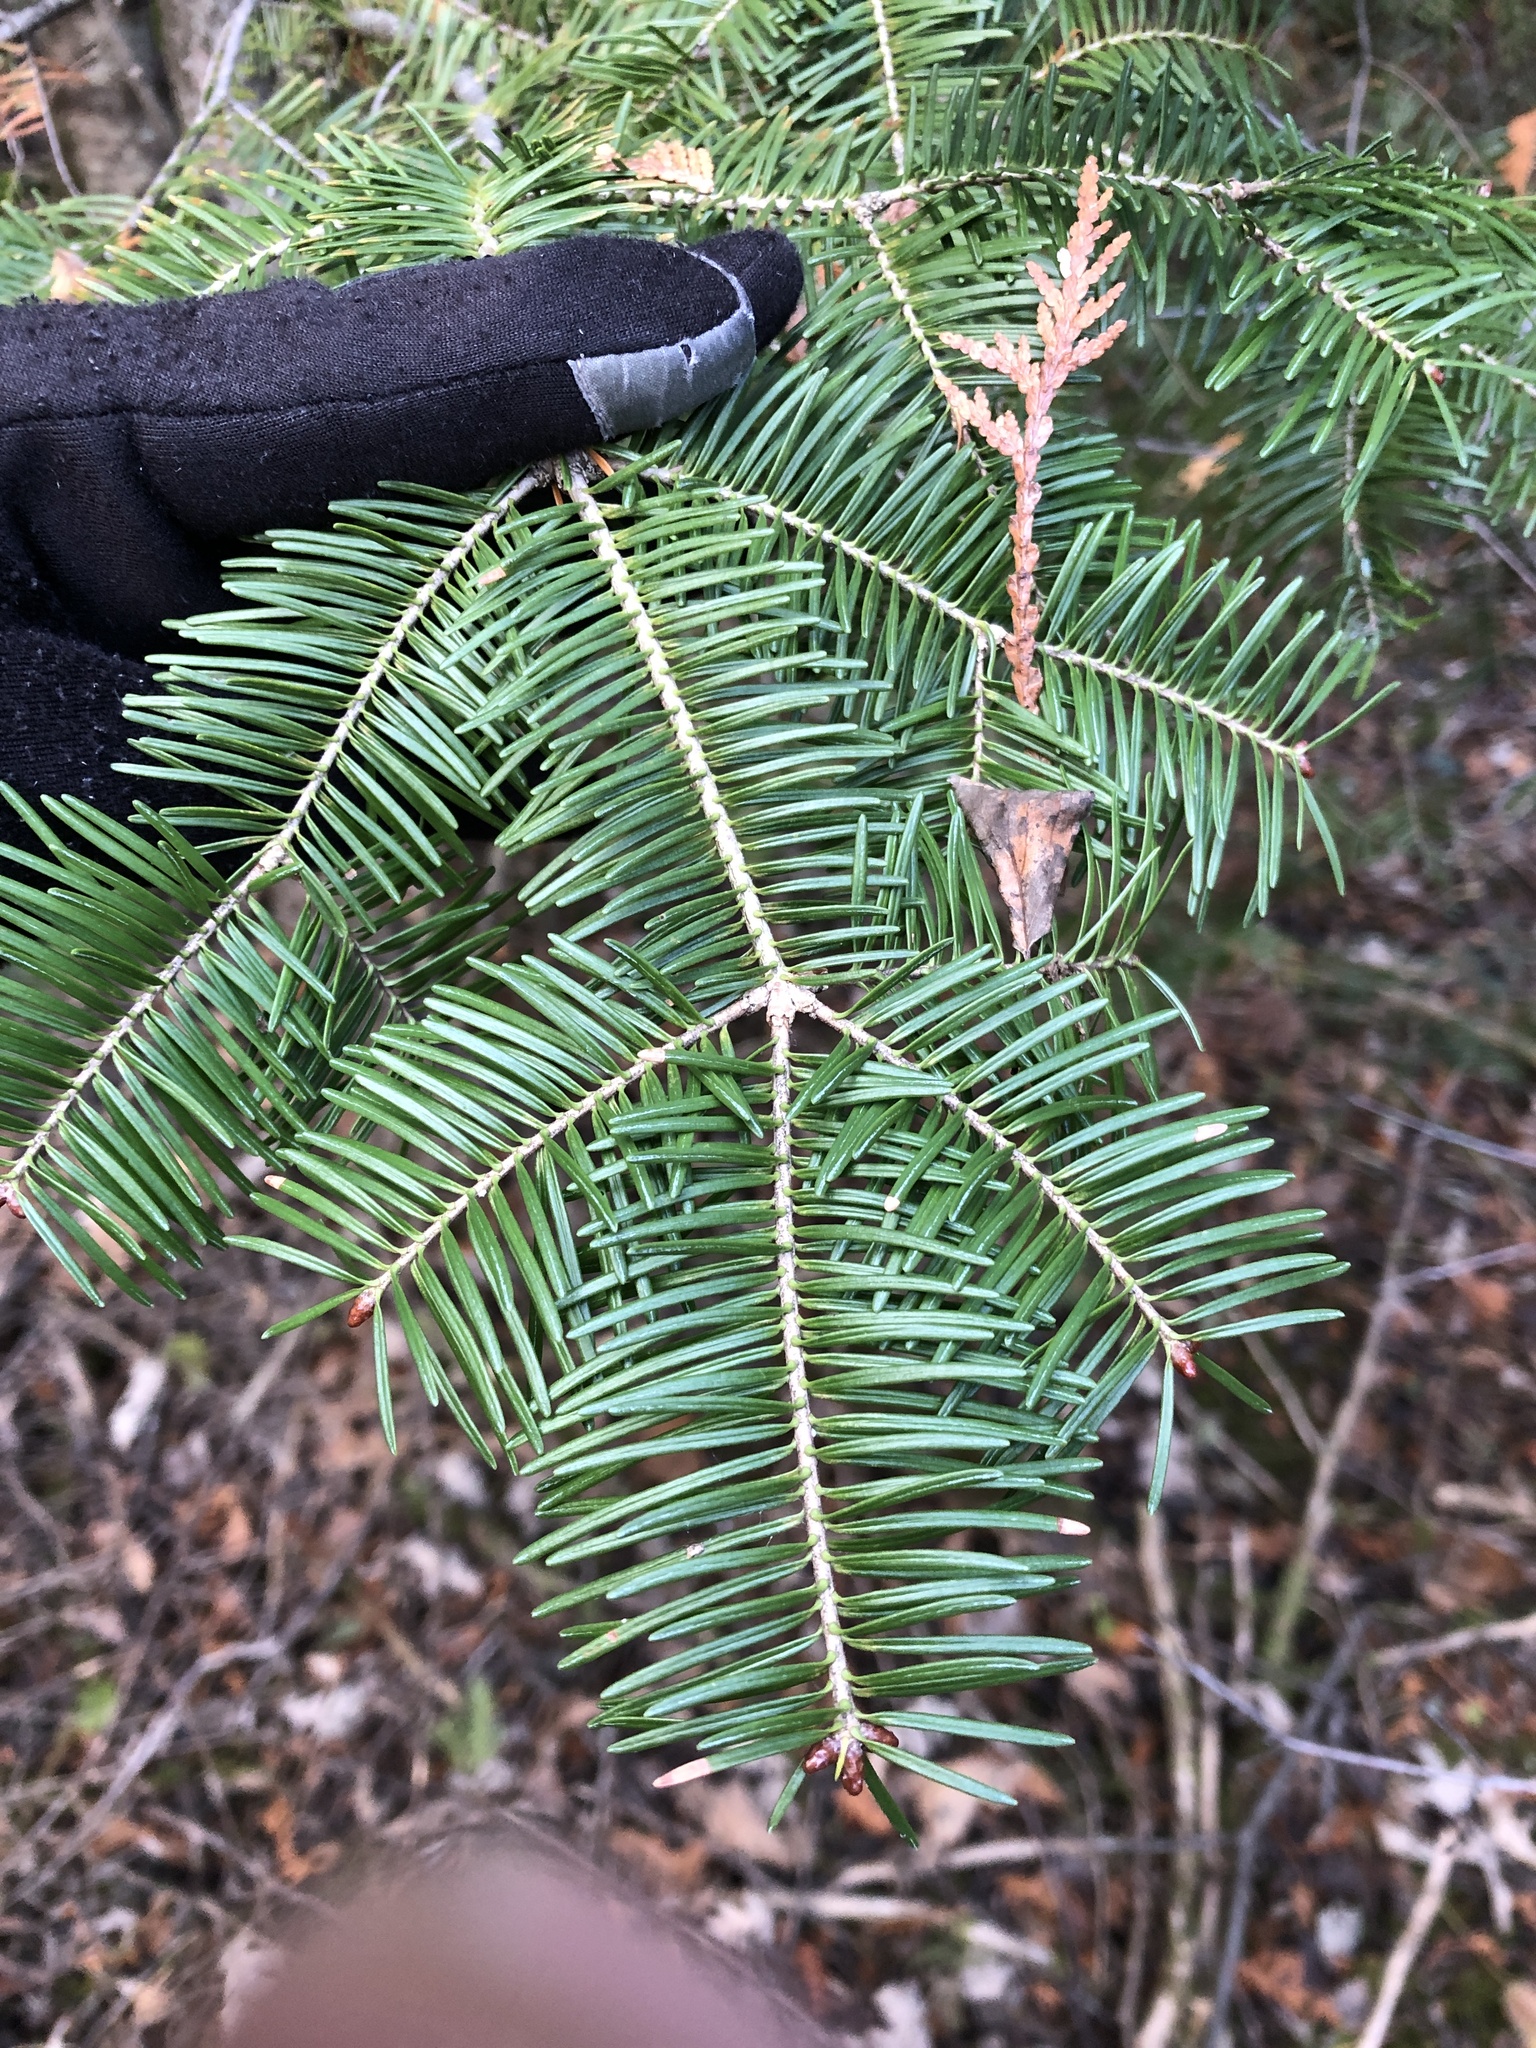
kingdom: Plantae
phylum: Tracheophyta
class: Pinopsida
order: Pinales
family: Pinaceae
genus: Abies
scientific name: Abies balsamea
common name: Balsam fir
